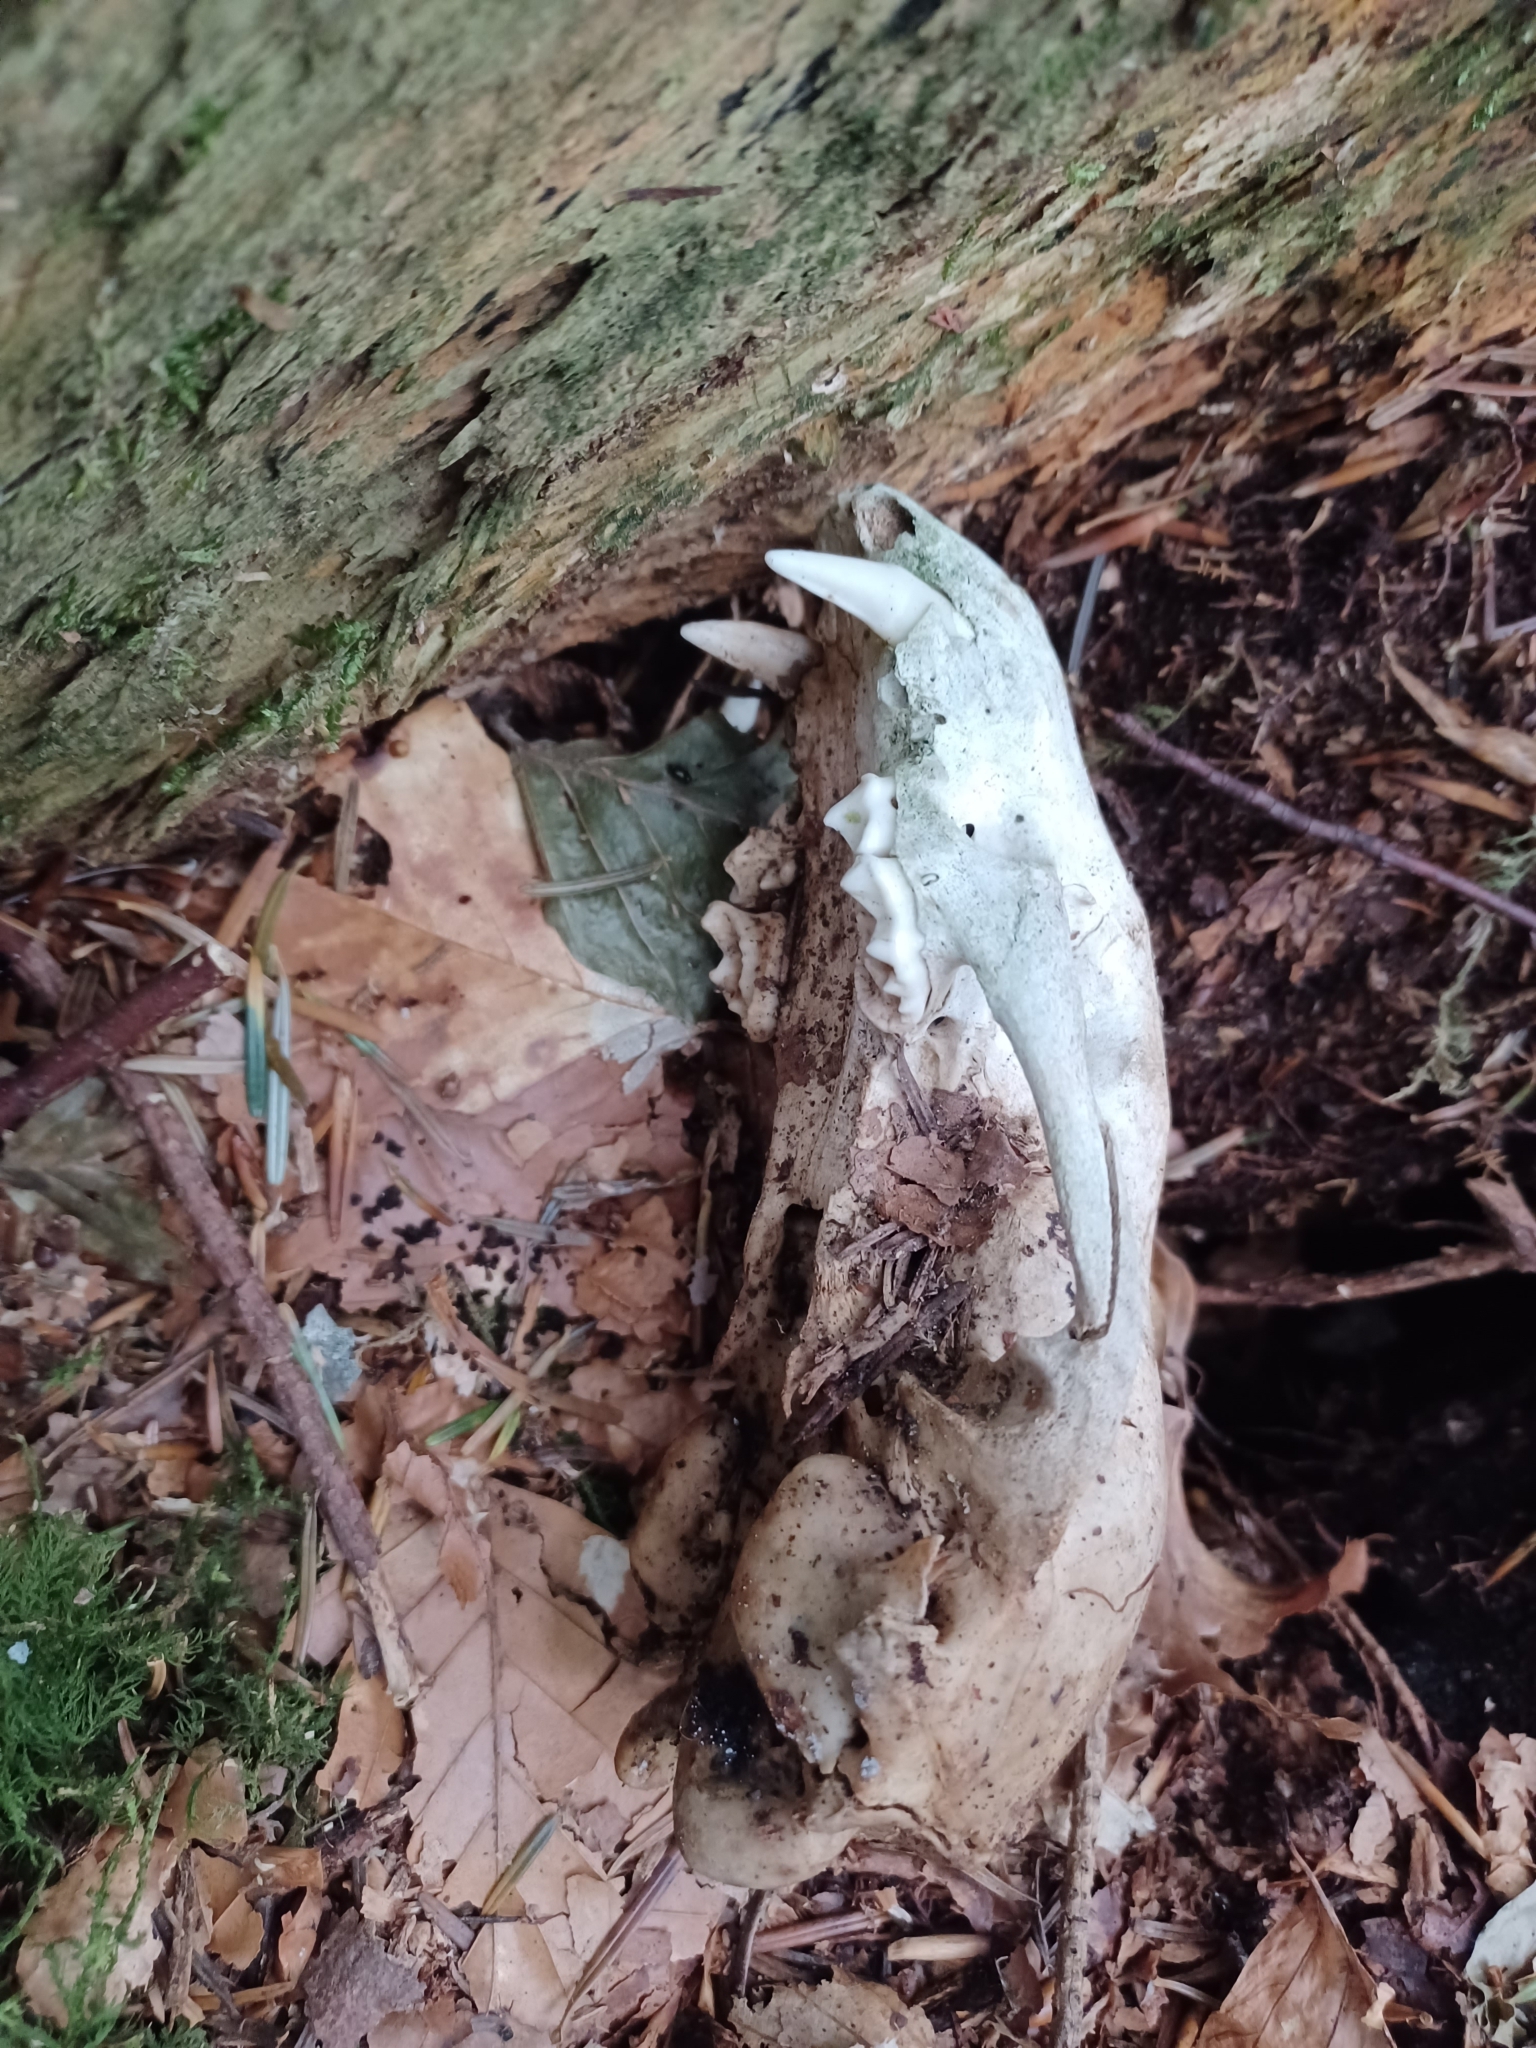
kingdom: Animalia
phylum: Chordata
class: Mammalia
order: Carnivora
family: Mustelidae
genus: Meles
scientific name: Meles meles
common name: Eurasian badger
